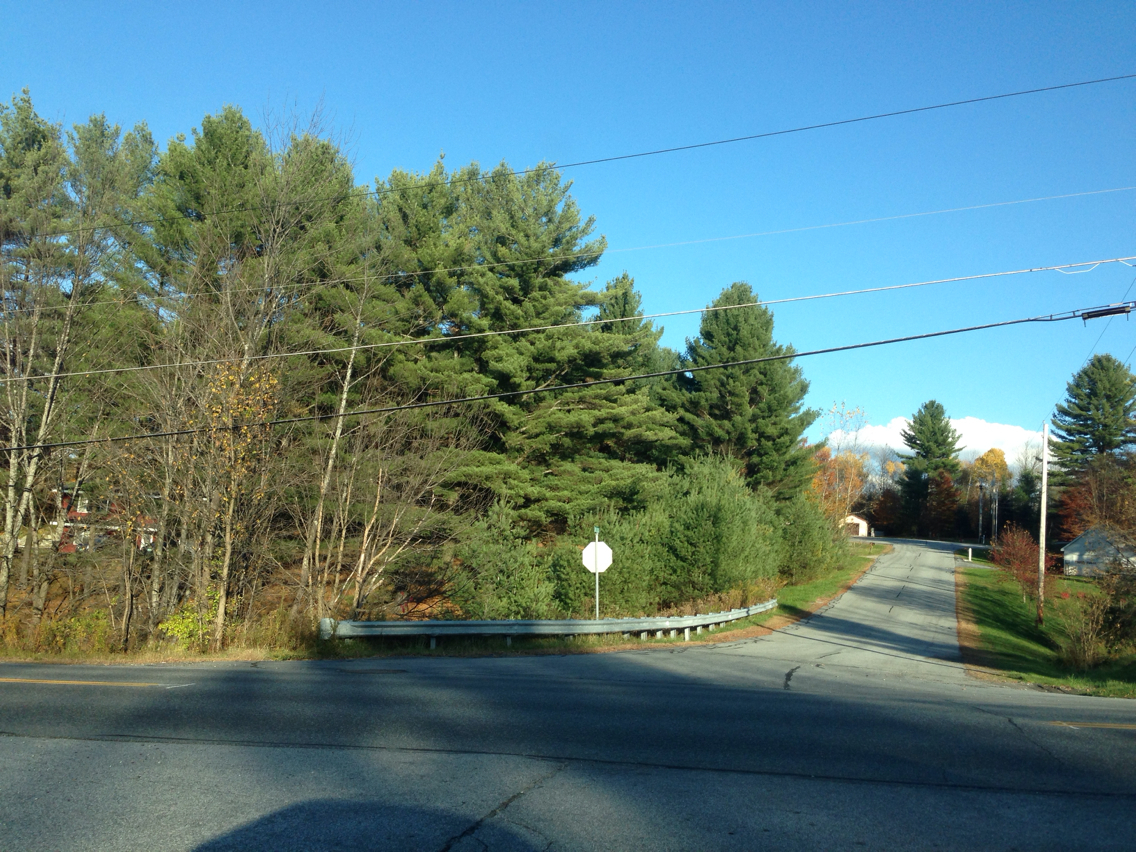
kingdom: Plantae
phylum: Tracheophyta
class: Pinopsida
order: Pinales
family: Pinaceae
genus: Pinus
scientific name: Pinus strobus
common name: Weymouth pine
